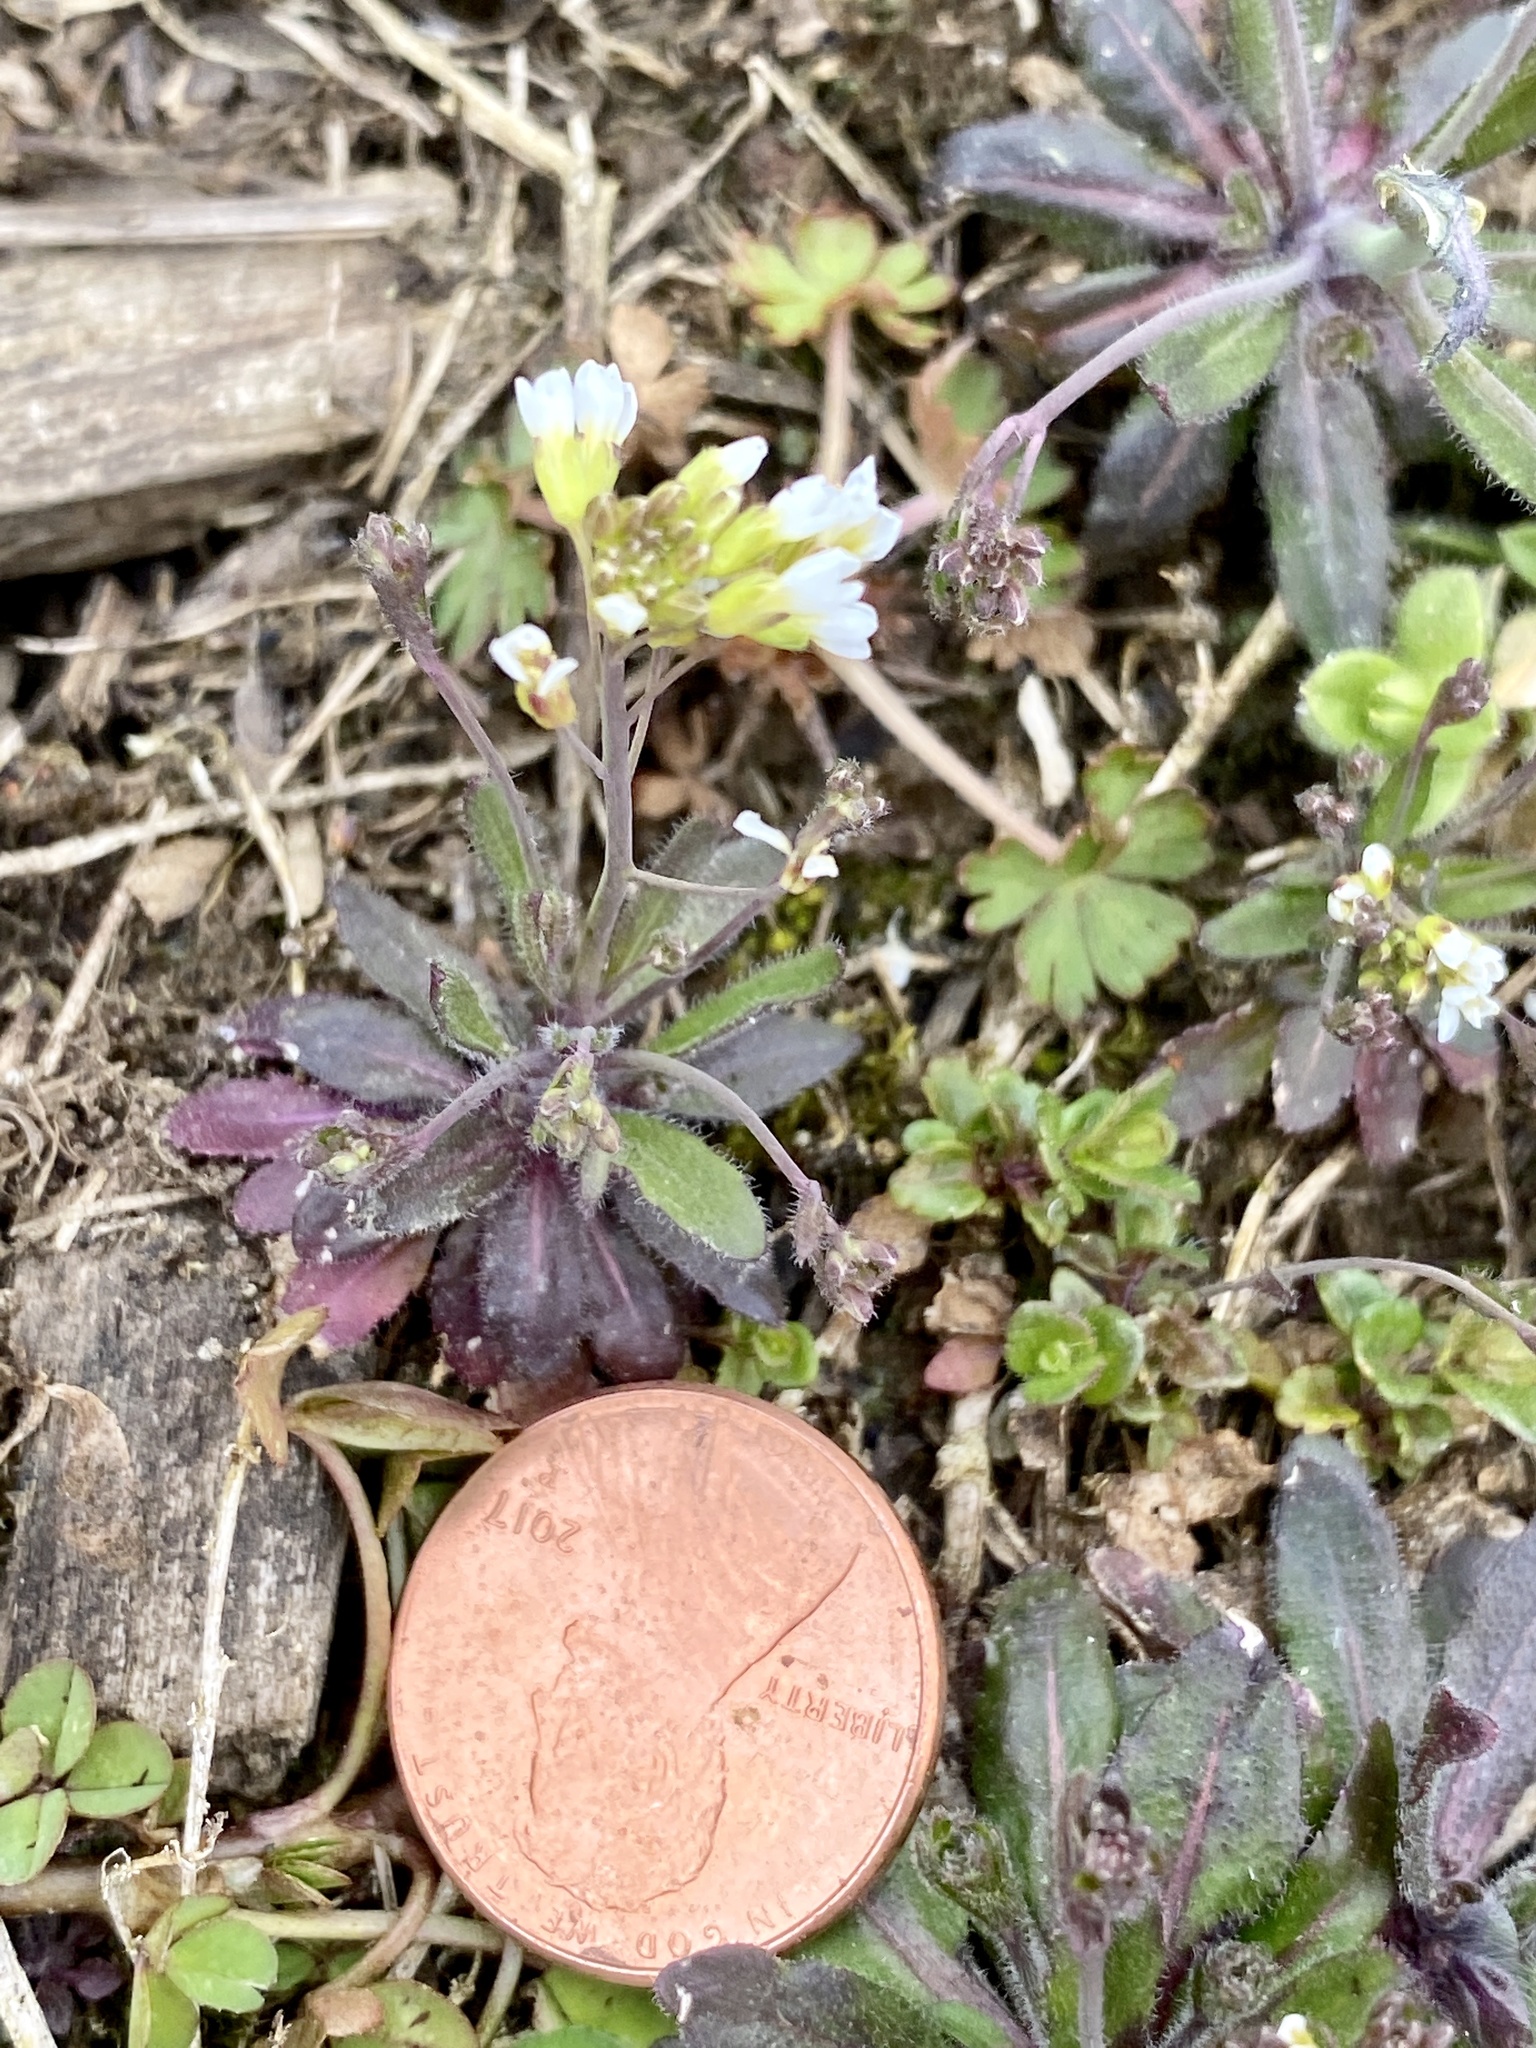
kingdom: Plantae
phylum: Tracheophyta
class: Magnoliopsida
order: Brassicales
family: Brassicaceae
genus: Arabidopsis
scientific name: Arabidopsis thaliana
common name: Thale cress
